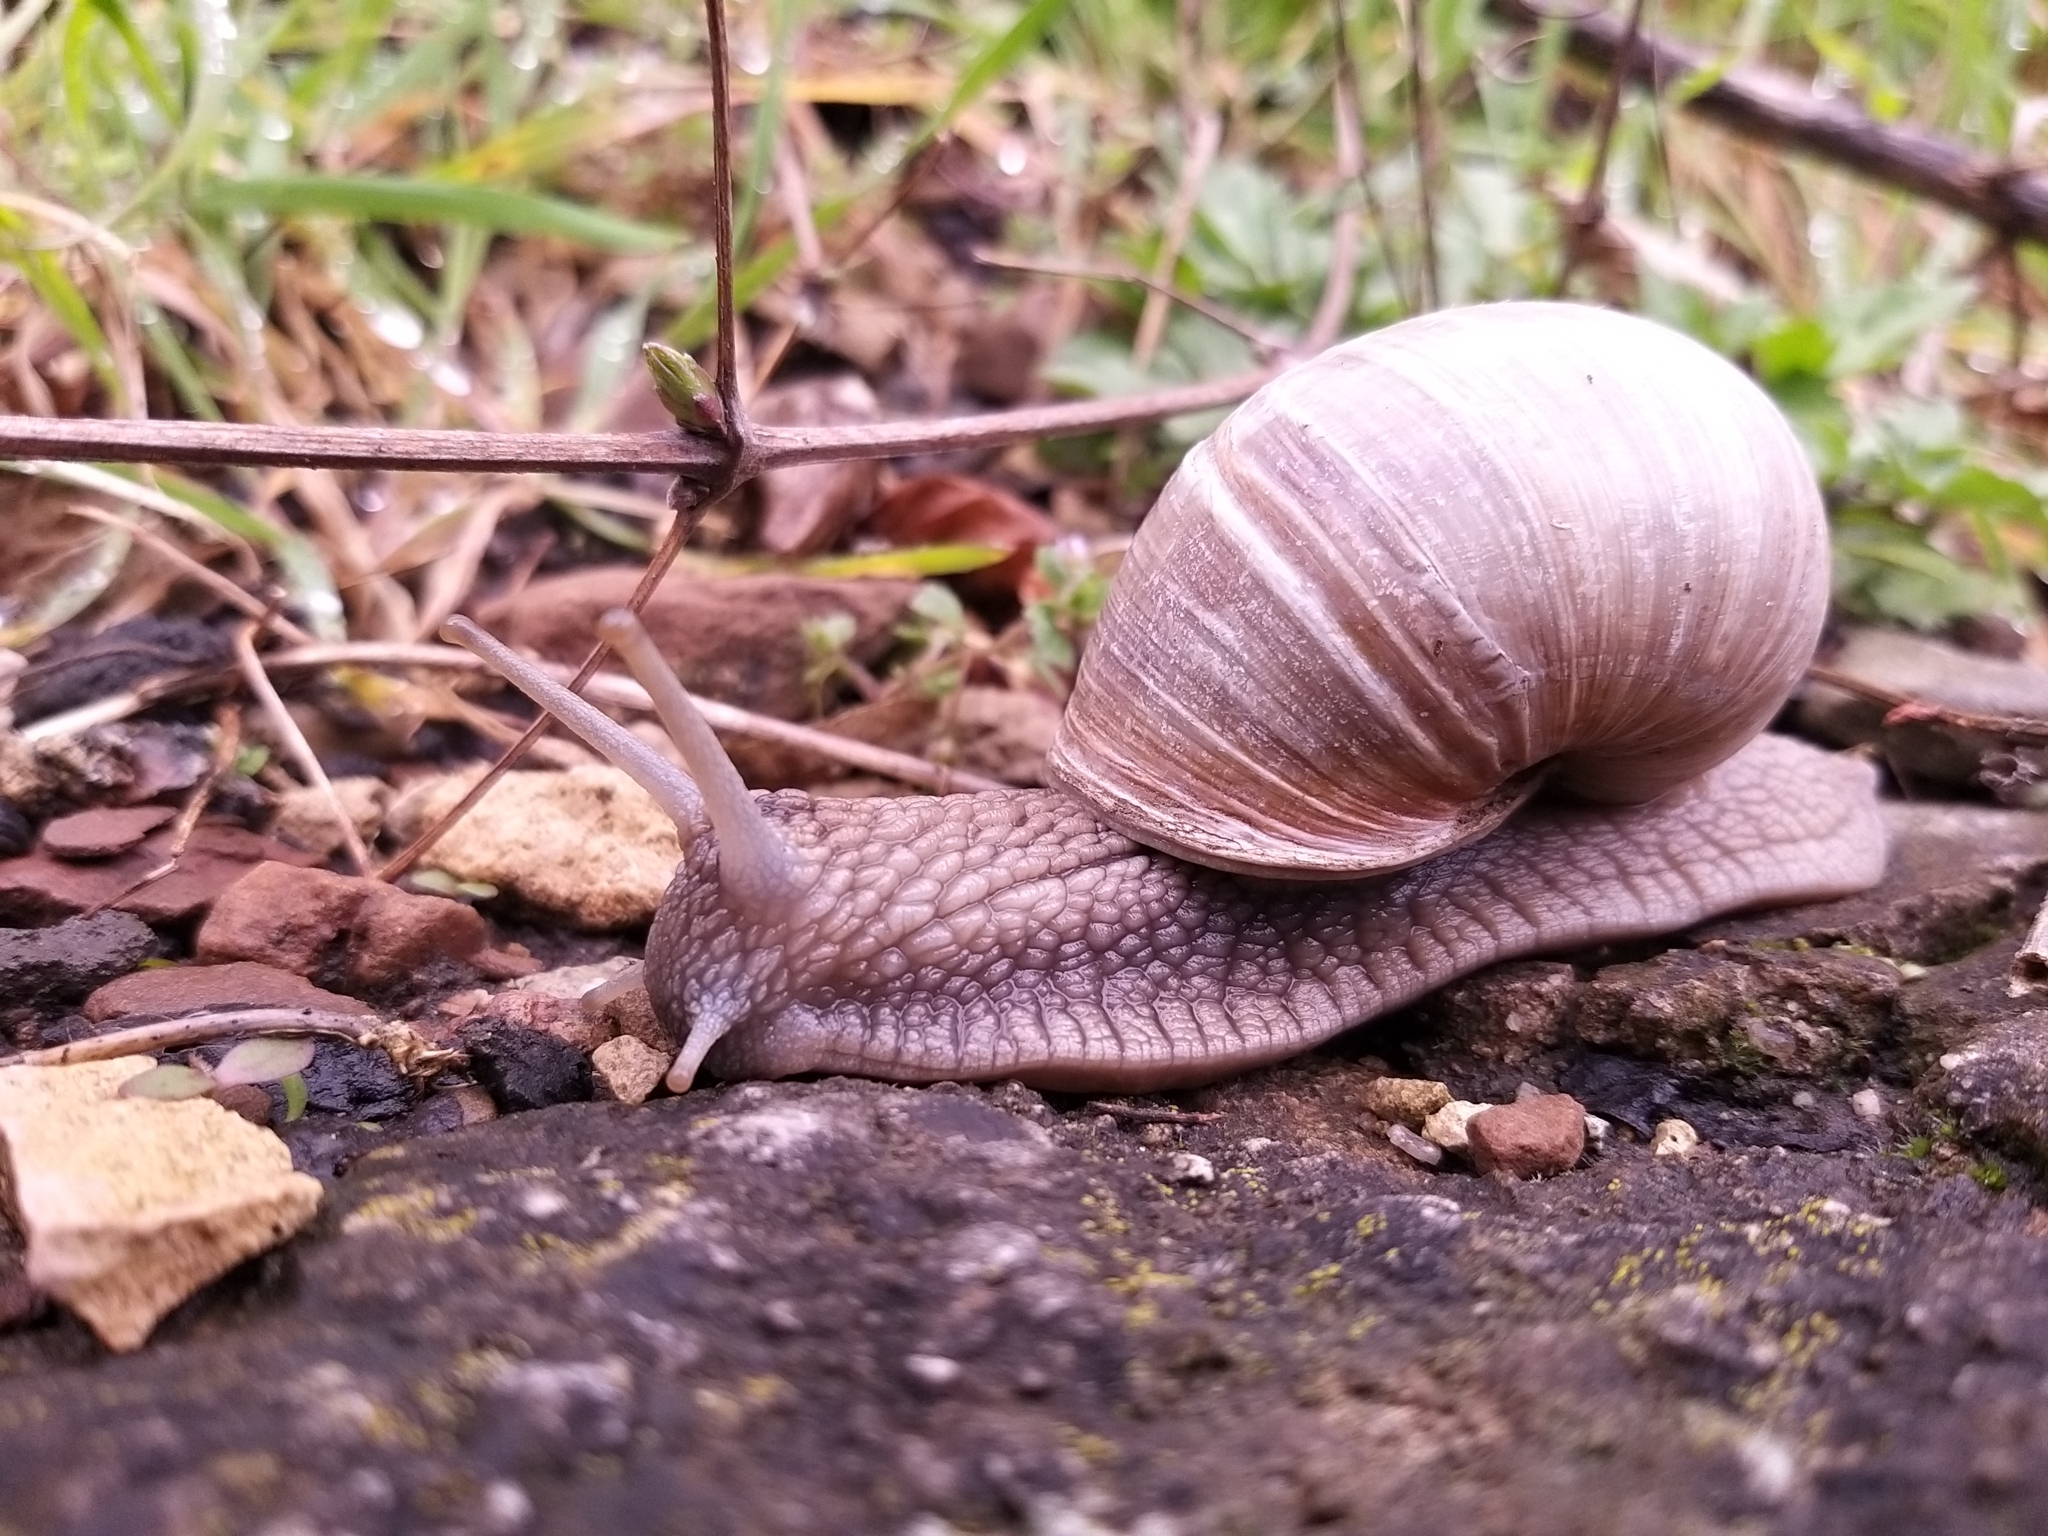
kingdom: Animalia
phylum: Mollusca
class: Gastropoda
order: Stylommatophora
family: Helicidae
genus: Helix
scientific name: Helix pomatia
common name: Roman snail
